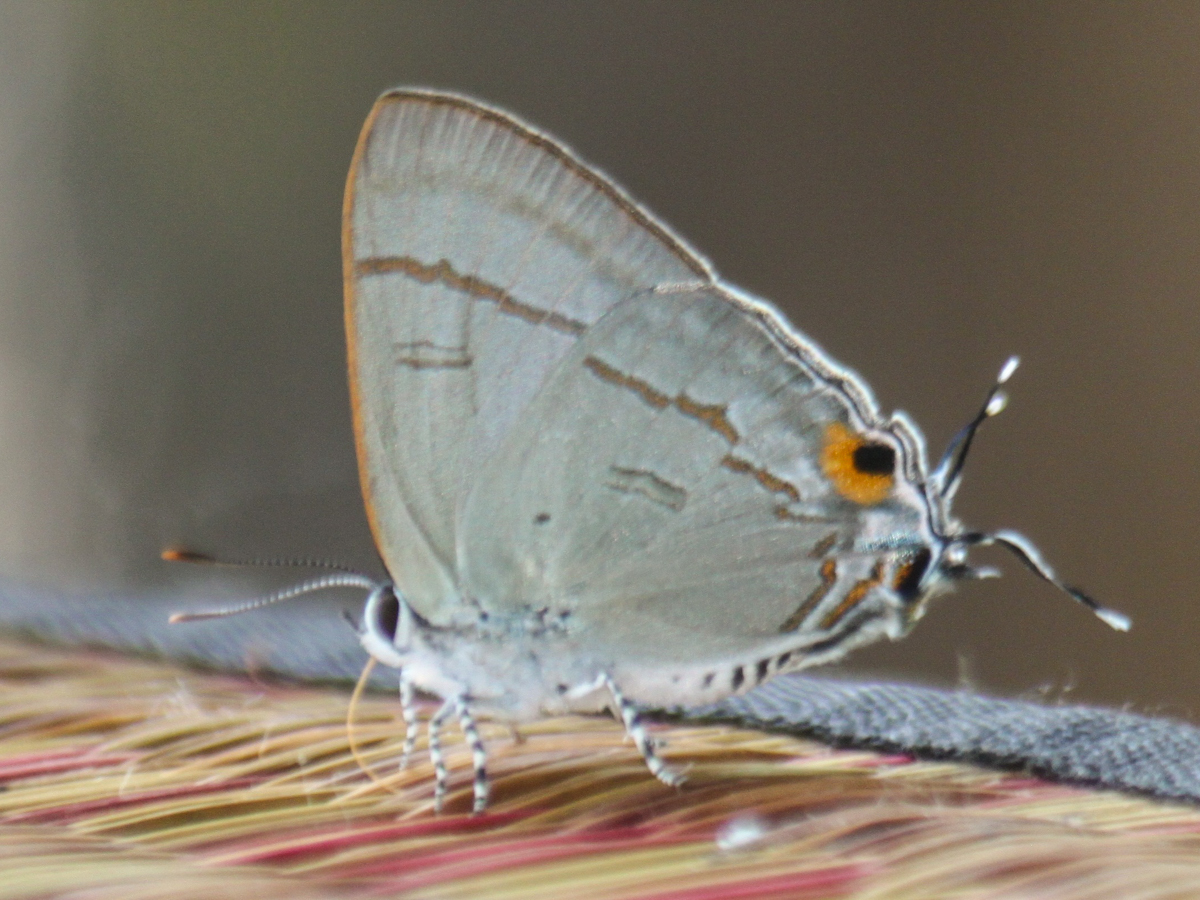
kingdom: Animalia
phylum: Arthropoda
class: Insecta
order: Lepidoptera
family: Lycaenidae
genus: Hypolycaena
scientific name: Hypolycaena erylus
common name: Common tit
